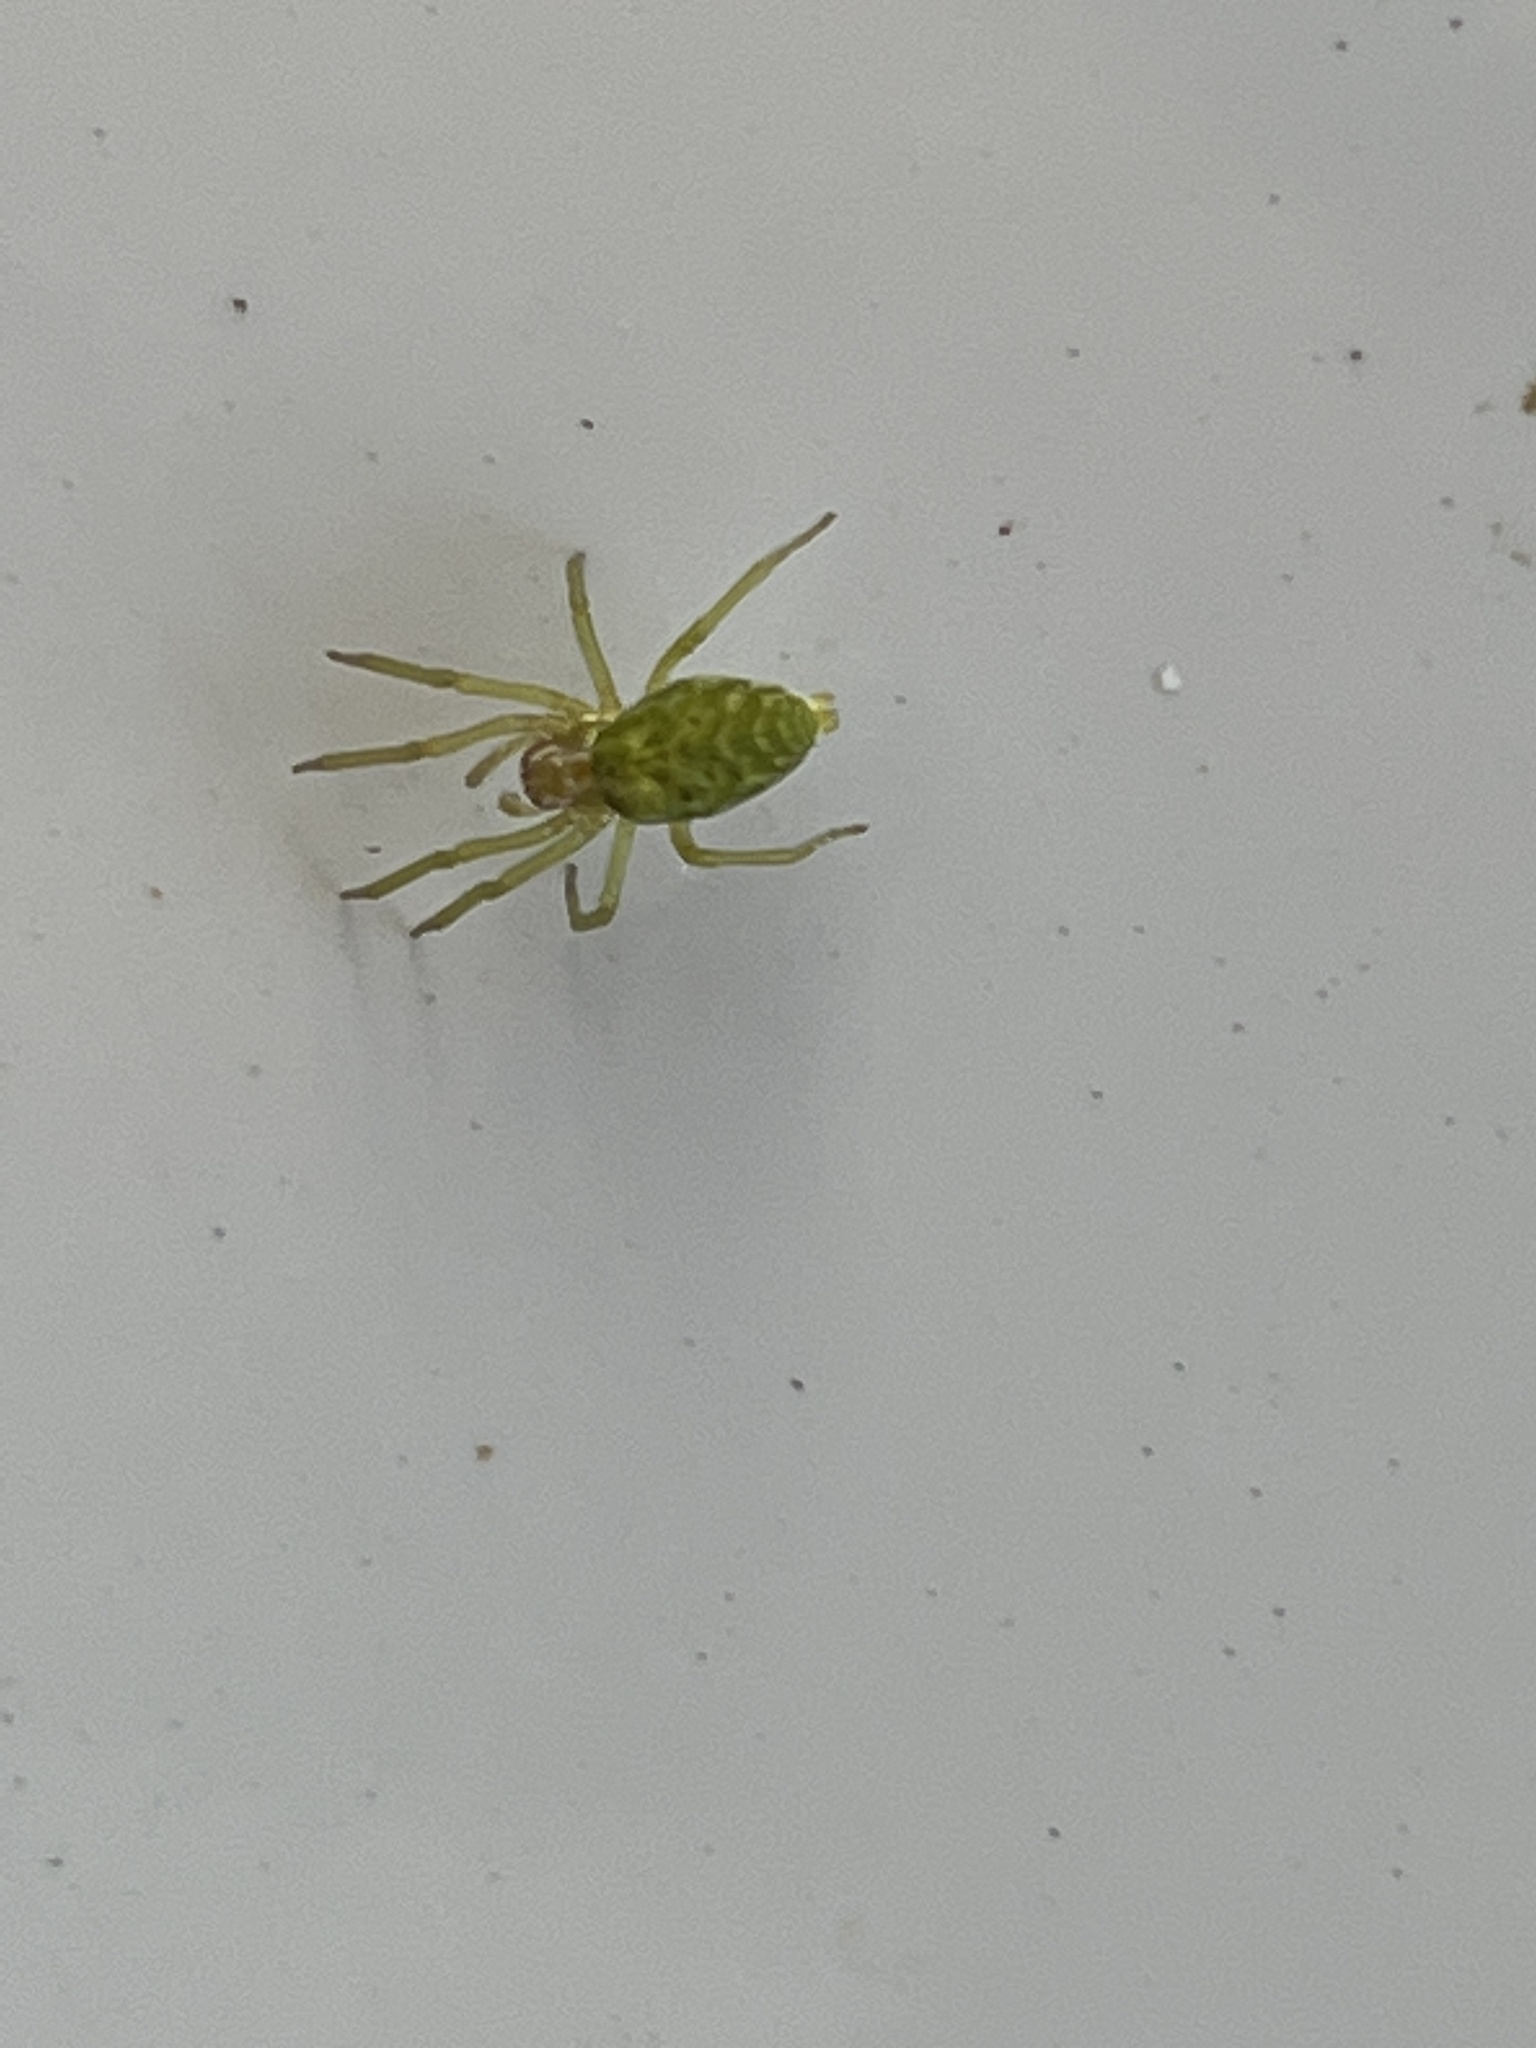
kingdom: Animalia
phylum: Arthropoda
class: Arachnida
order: Araneae
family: Dictynidae
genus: Nigma
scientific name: Nigma walckenaeri
